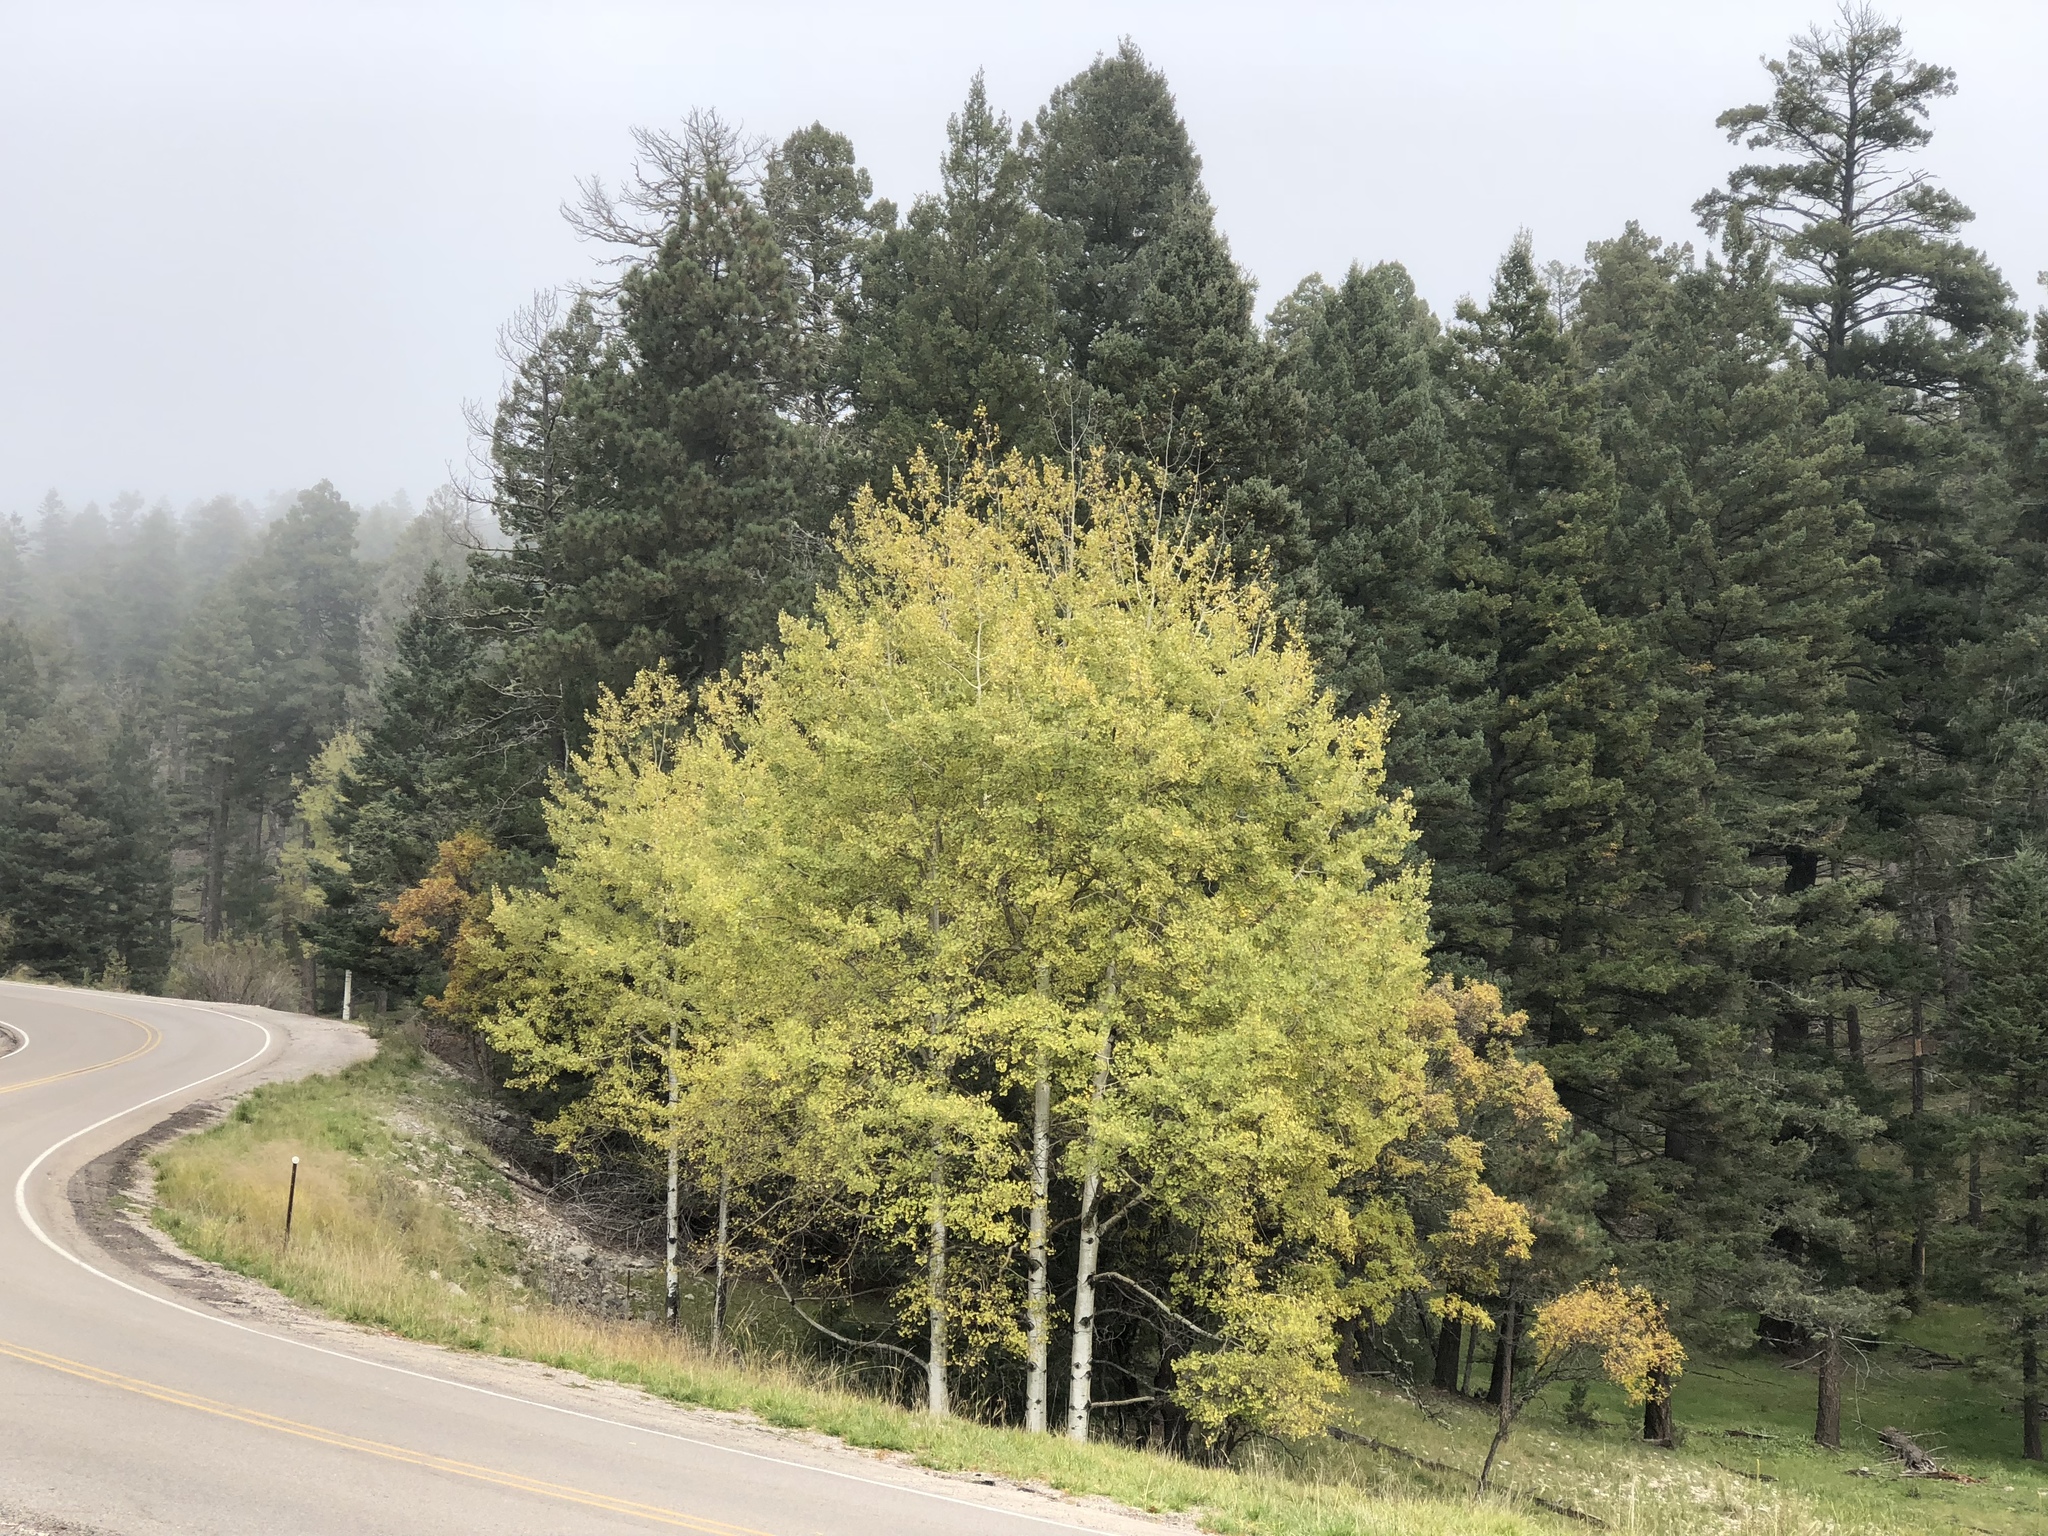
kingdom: Plantae
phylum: Tracheophyta
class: Magnoliopsida
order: Malpighiales
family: Salicaceae
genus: Populus
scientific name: Populus tremuloides
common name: Quaking aspen
